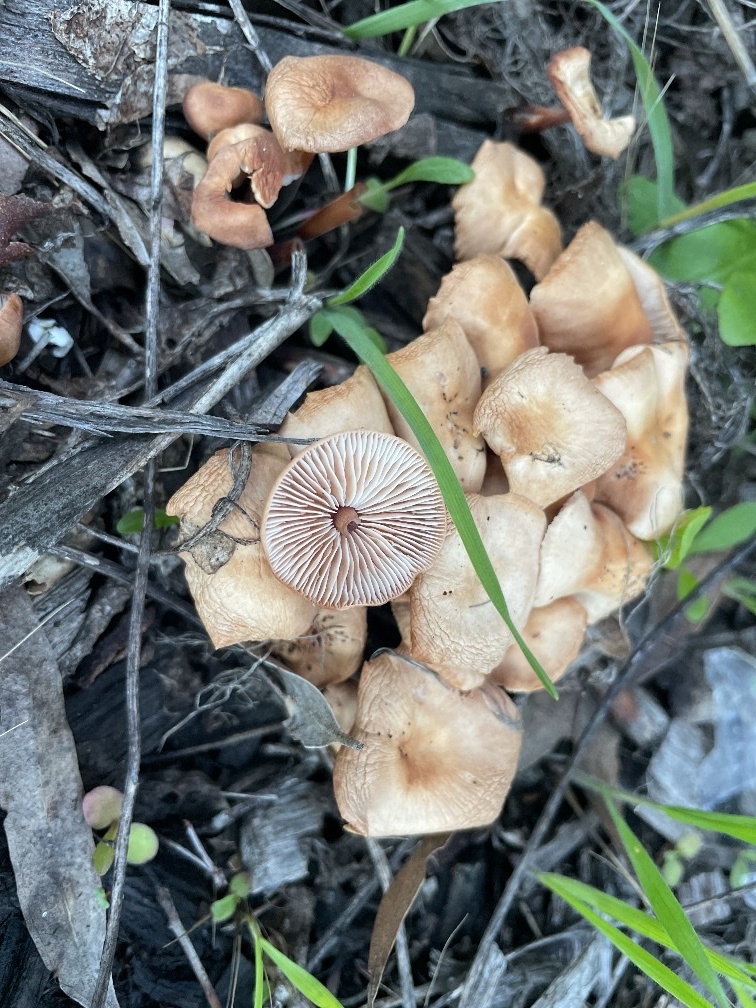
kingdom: Fungi
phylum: Basidiomycota
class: Agaricomycetes
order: Agaricales
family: Omphalotaceae
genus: Gymnopus
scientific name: Gymnopus brassicolens
